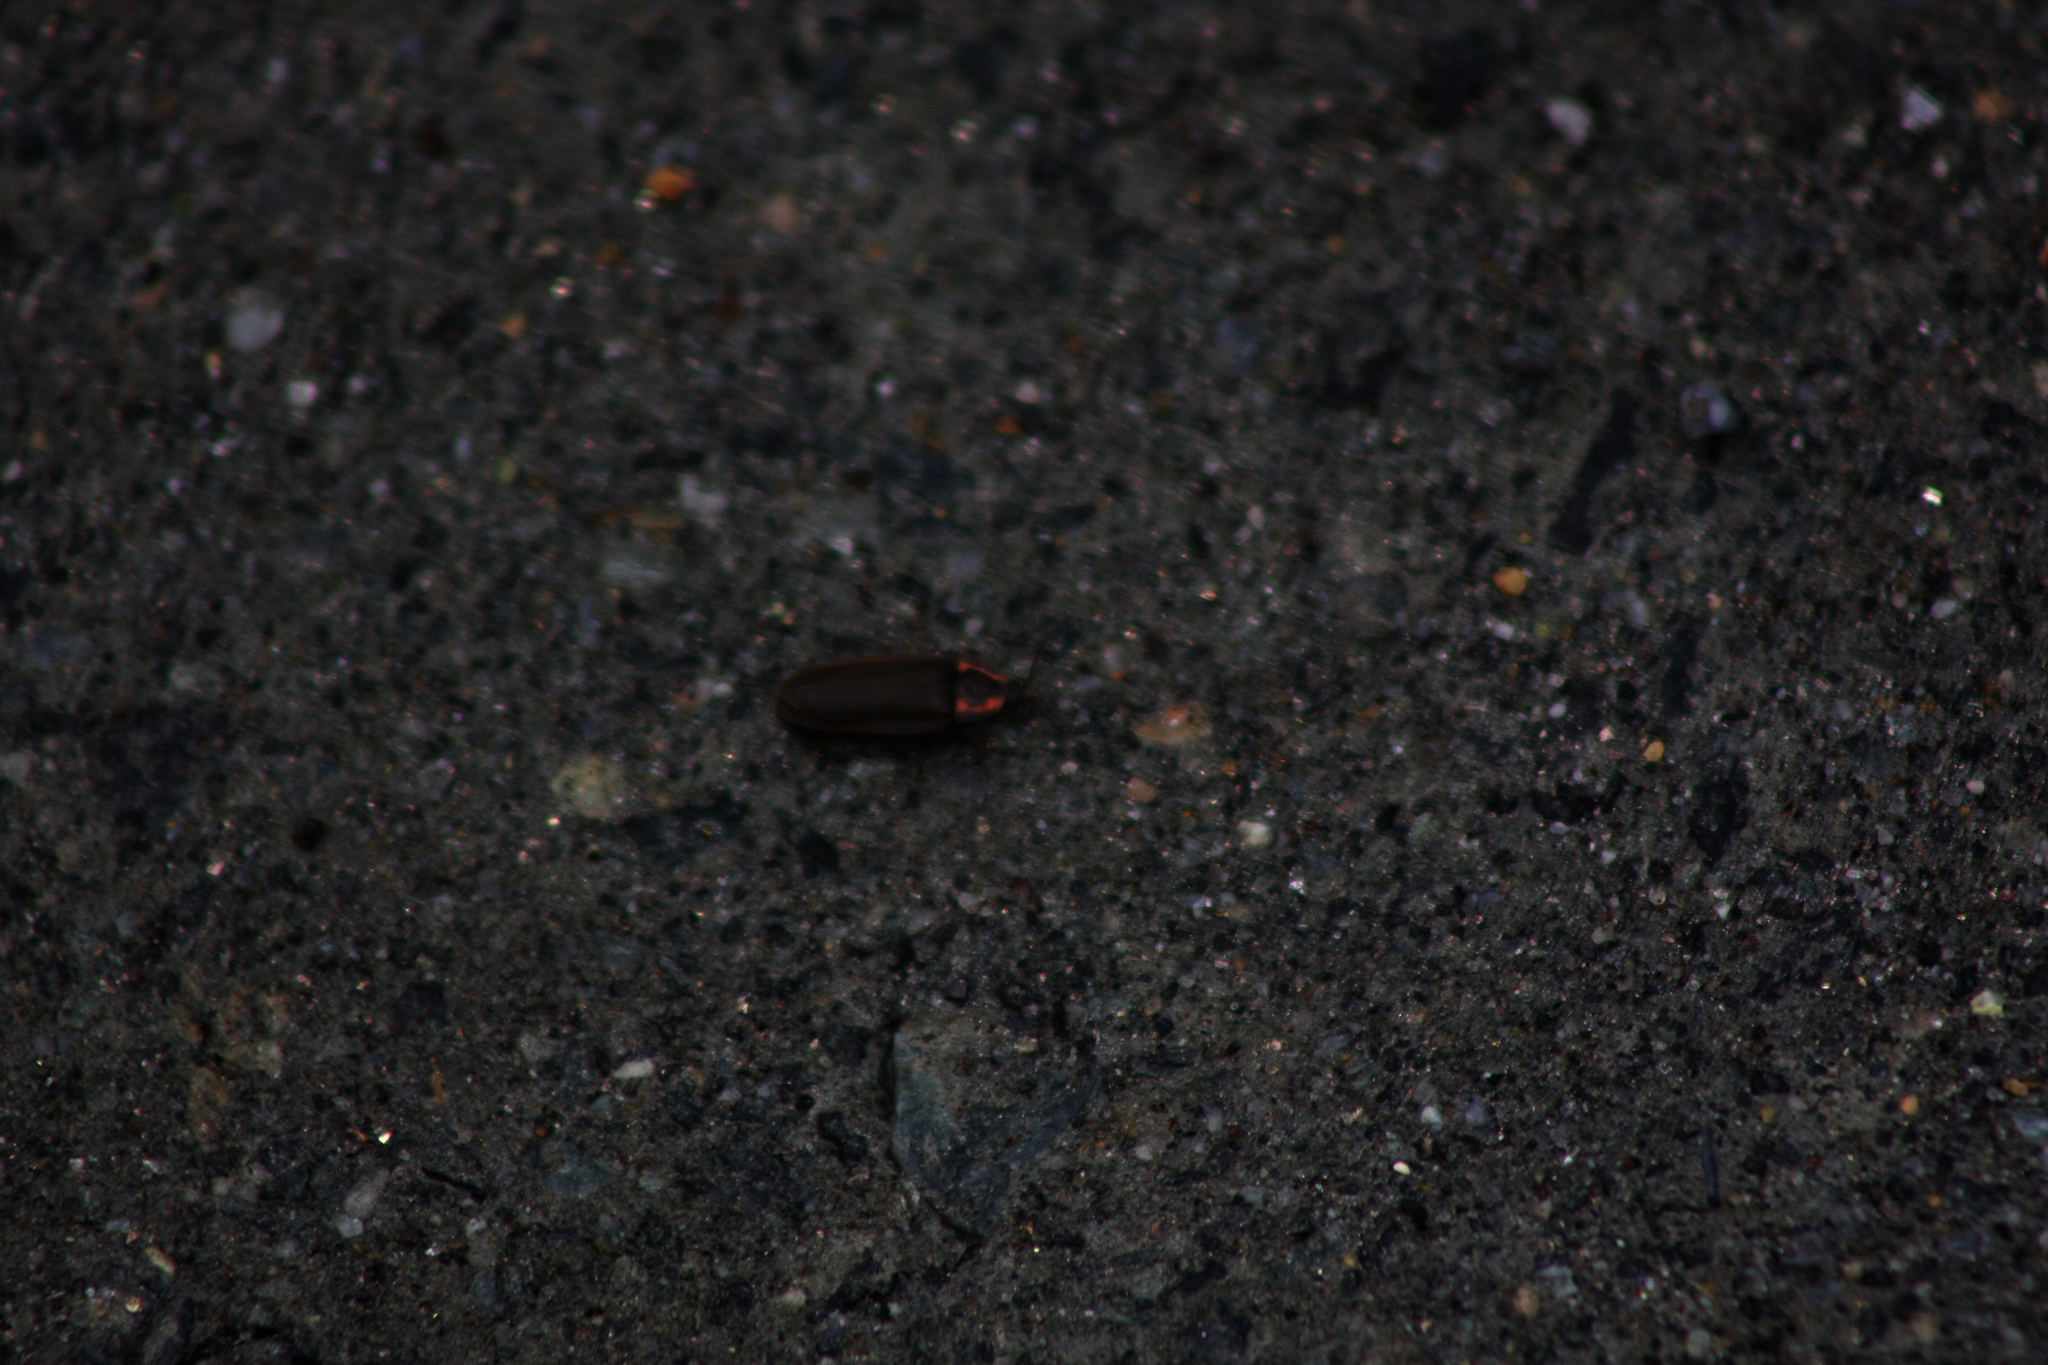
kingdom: Animalia
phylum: Arthropoda
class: Insecta
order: Coleoptera
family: Lampyridae
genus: Photinus
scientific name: Photinus corrusca
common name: Winter firefly
